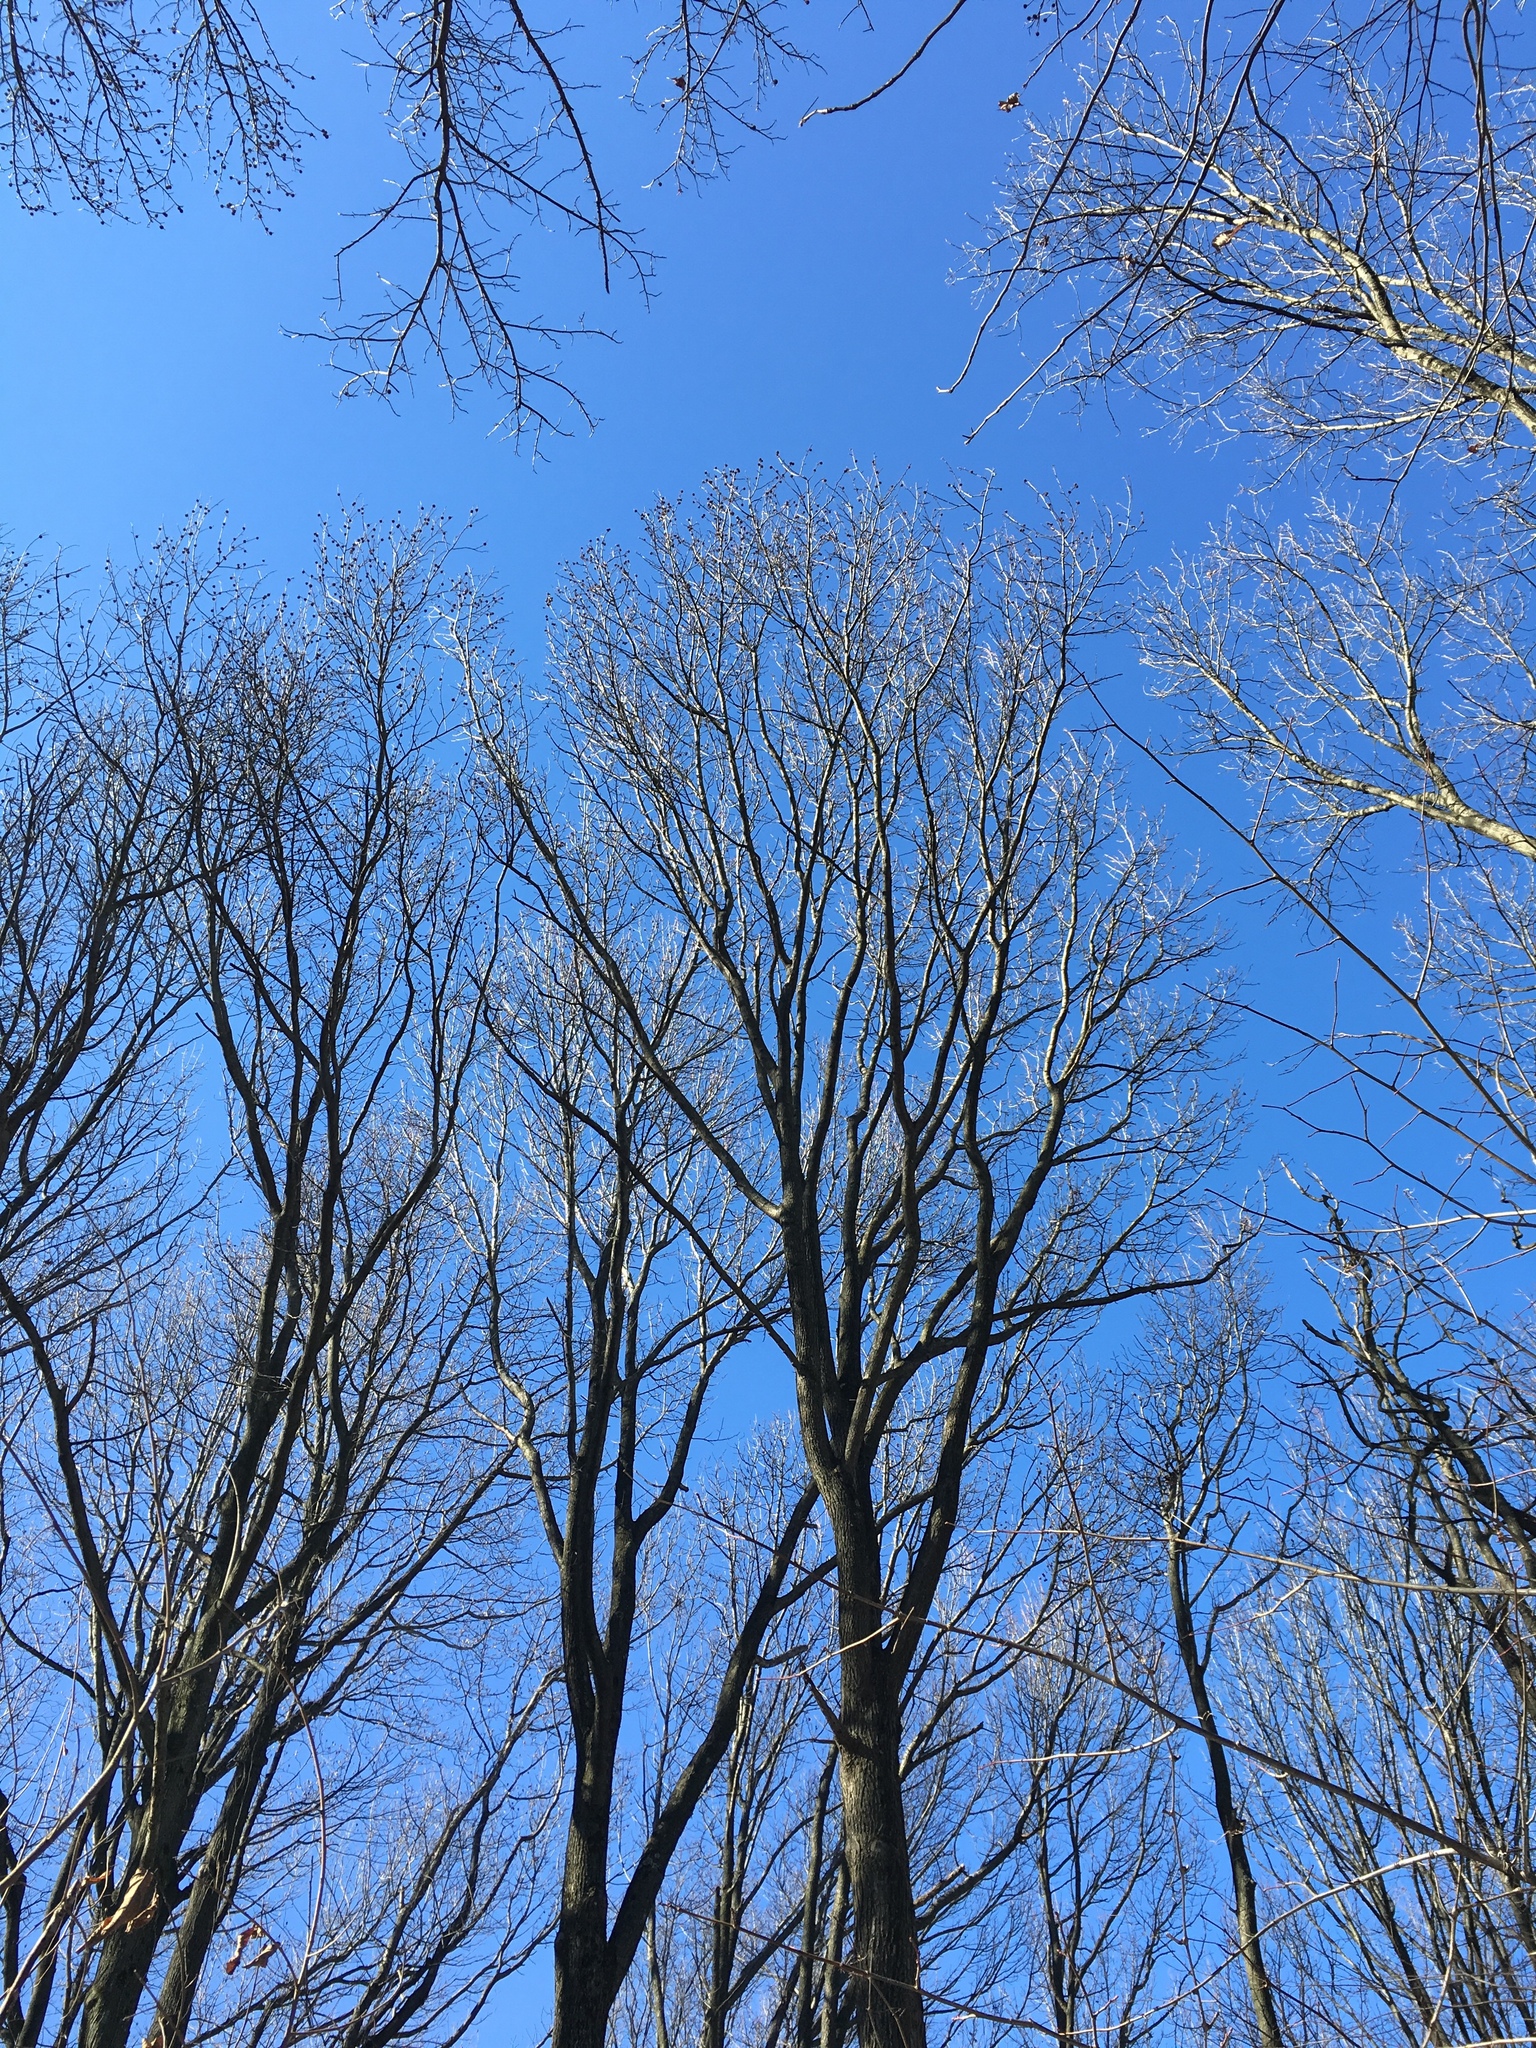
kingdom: Plantae
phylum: Tracheophyta
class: Magnoliopsida
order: Saxifragales
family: Altingiaceae
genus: Liquidambar
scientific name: Liquidambar styraciflua
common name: Sweet gum
